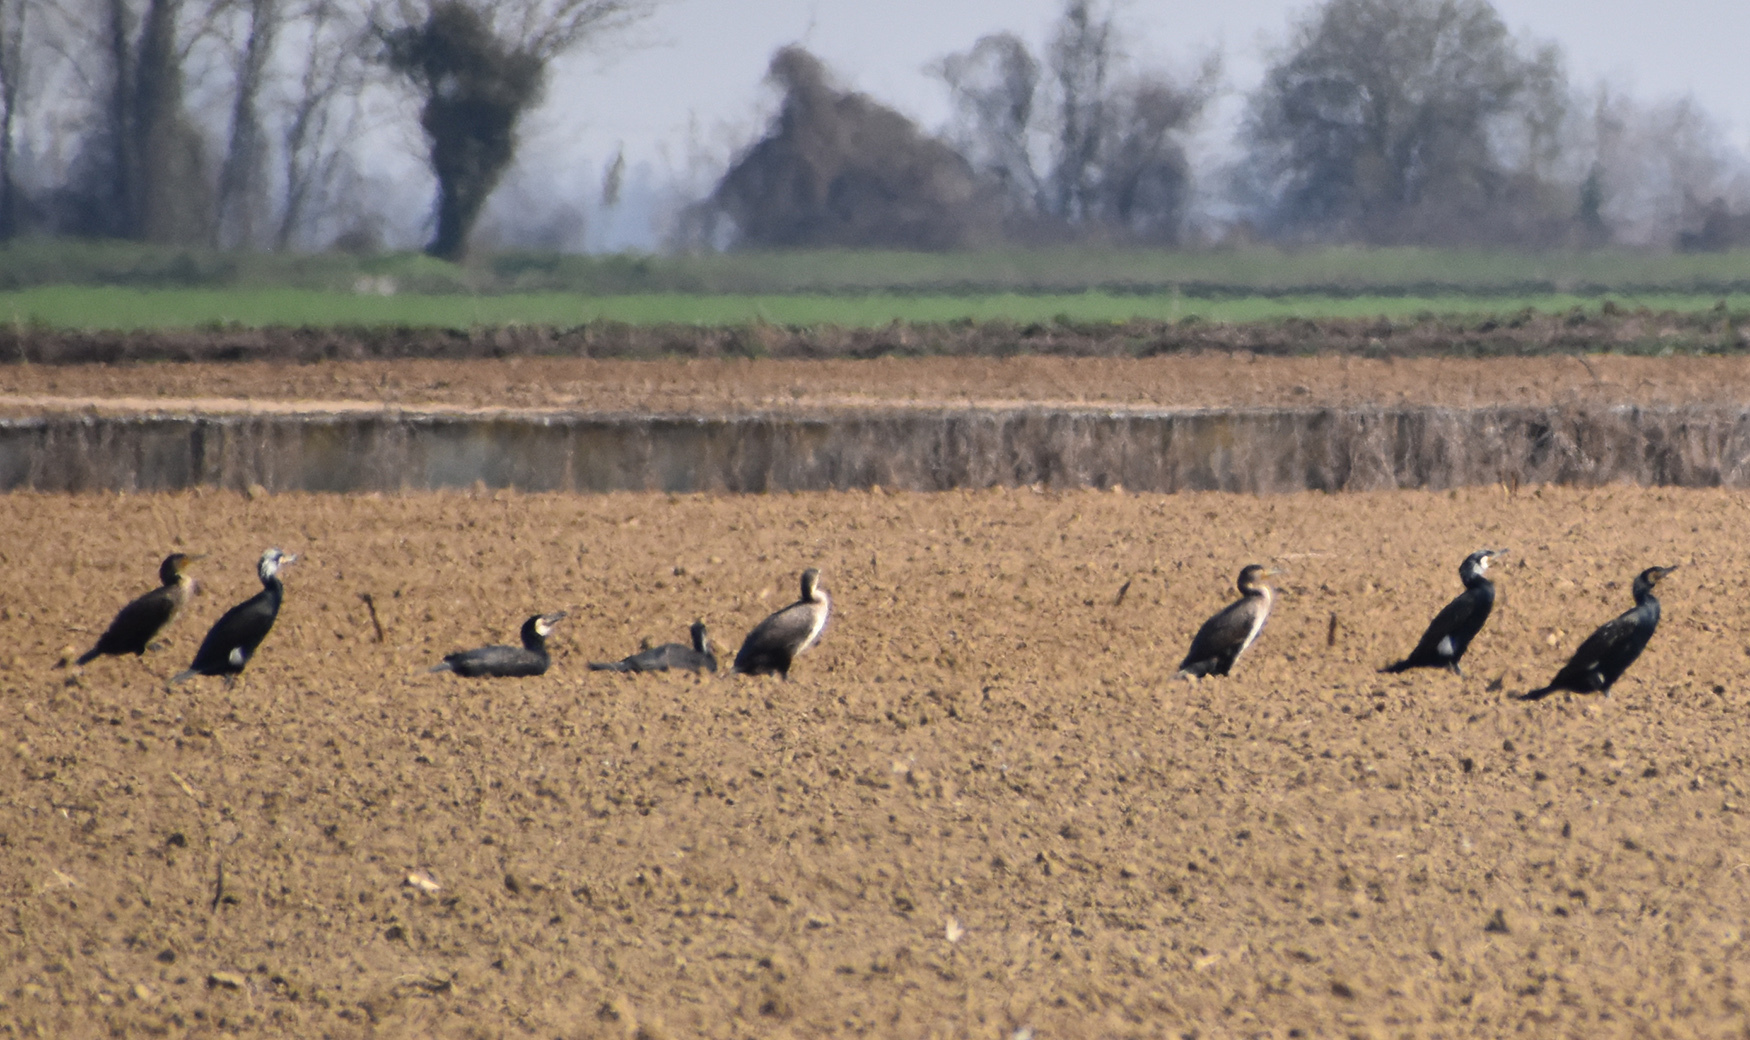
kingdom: Animalia
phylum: Chordata
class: Aves
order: Suliformes
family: Phalacrocoracidae
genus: Phalacrocorax
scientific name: Phalacrocorax carbo
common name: Great cormorant
